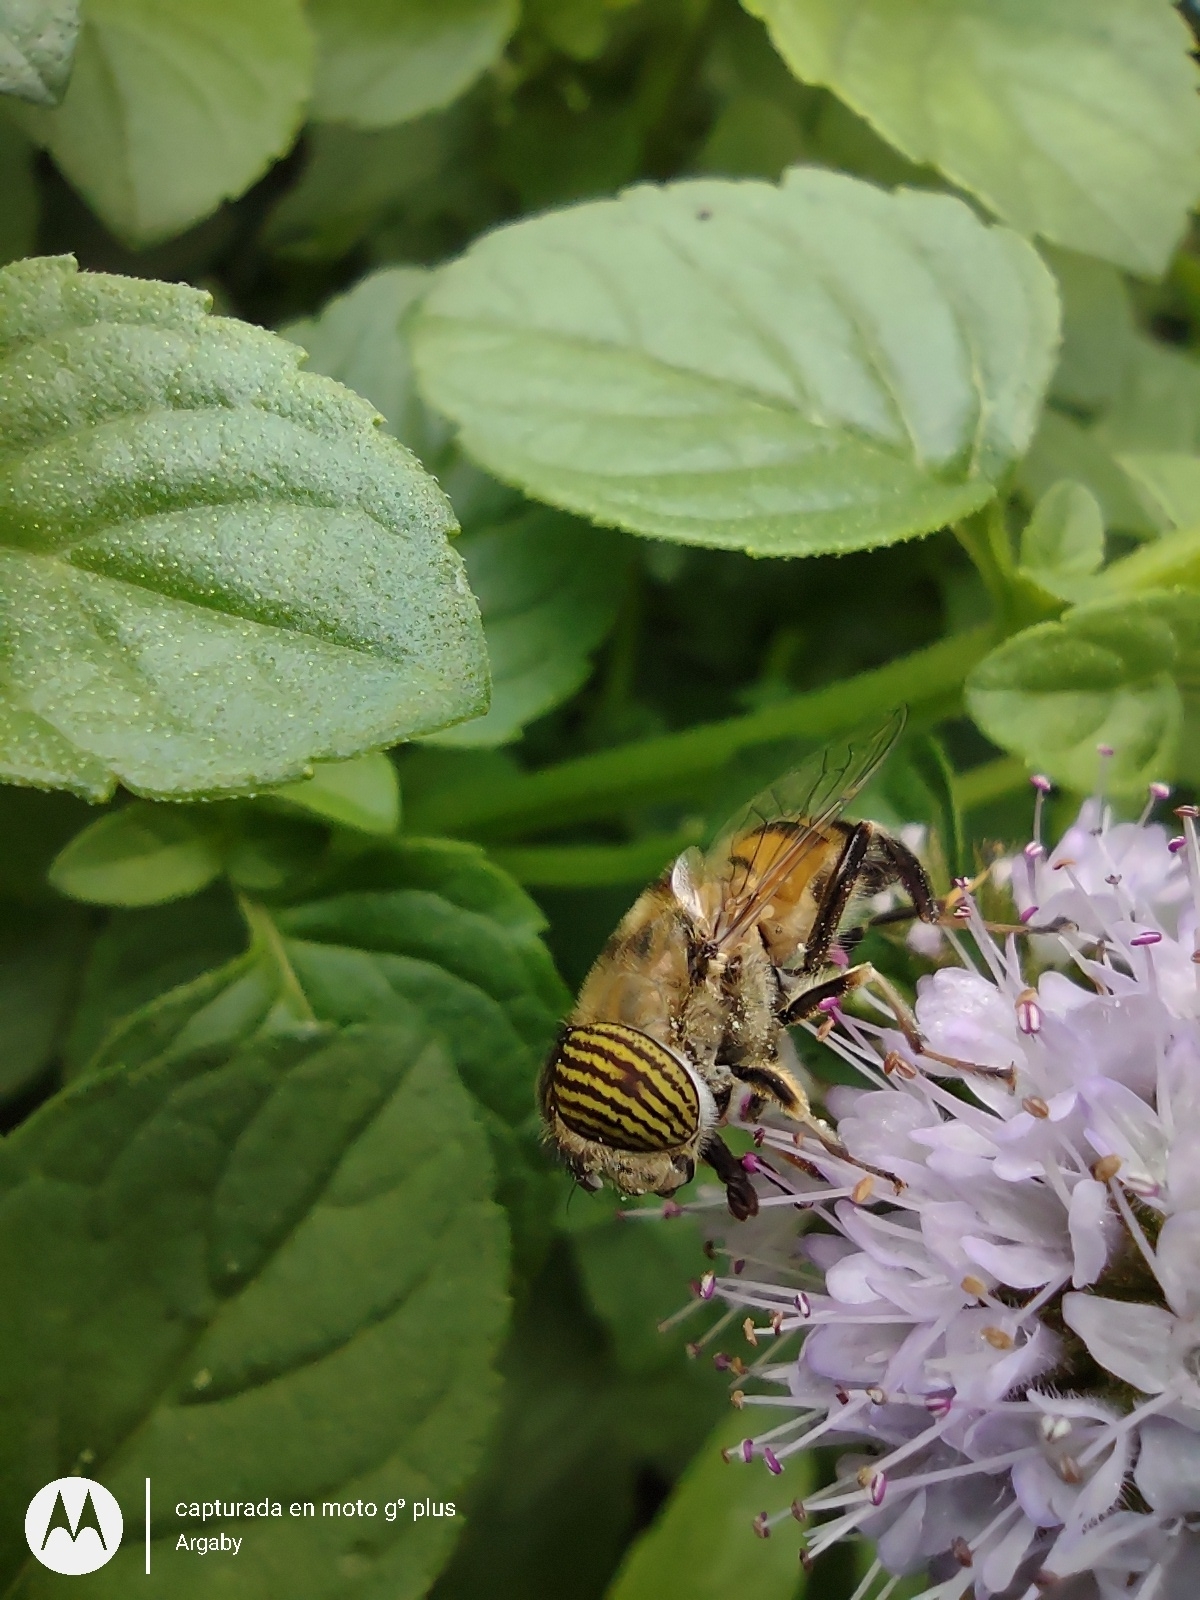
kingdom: Animalia
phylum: Arthropoda
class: Insecta
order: Diptera
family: Syrphidae
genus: Eristalinus
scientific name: Eristalinus taeniops
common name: Syrphid fly
